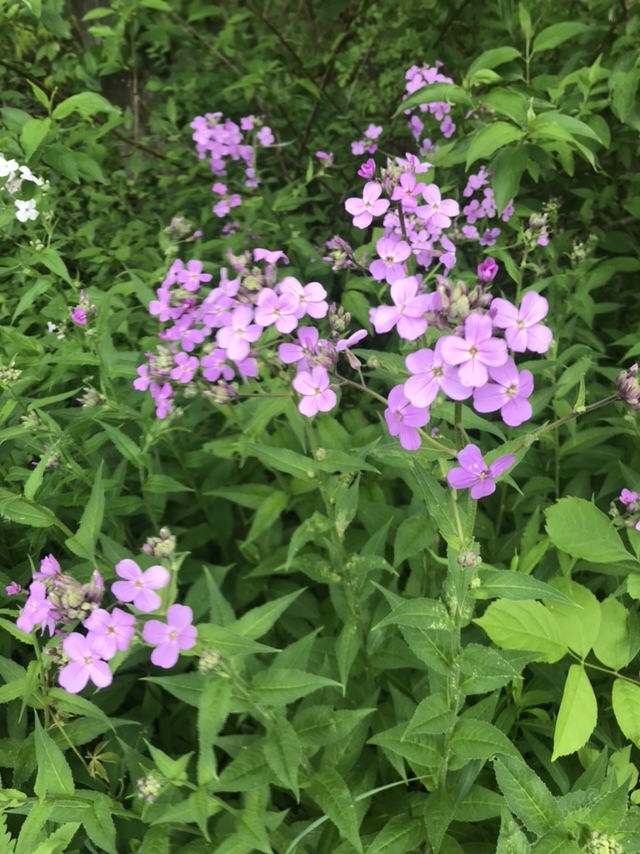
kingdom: Plantae
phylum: Tracheophyta
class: Magnoliopsida
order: Brassicales
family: Brassicaceae
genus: Hesperis
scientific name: Hesperis matronalis
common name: Dame's-violet
